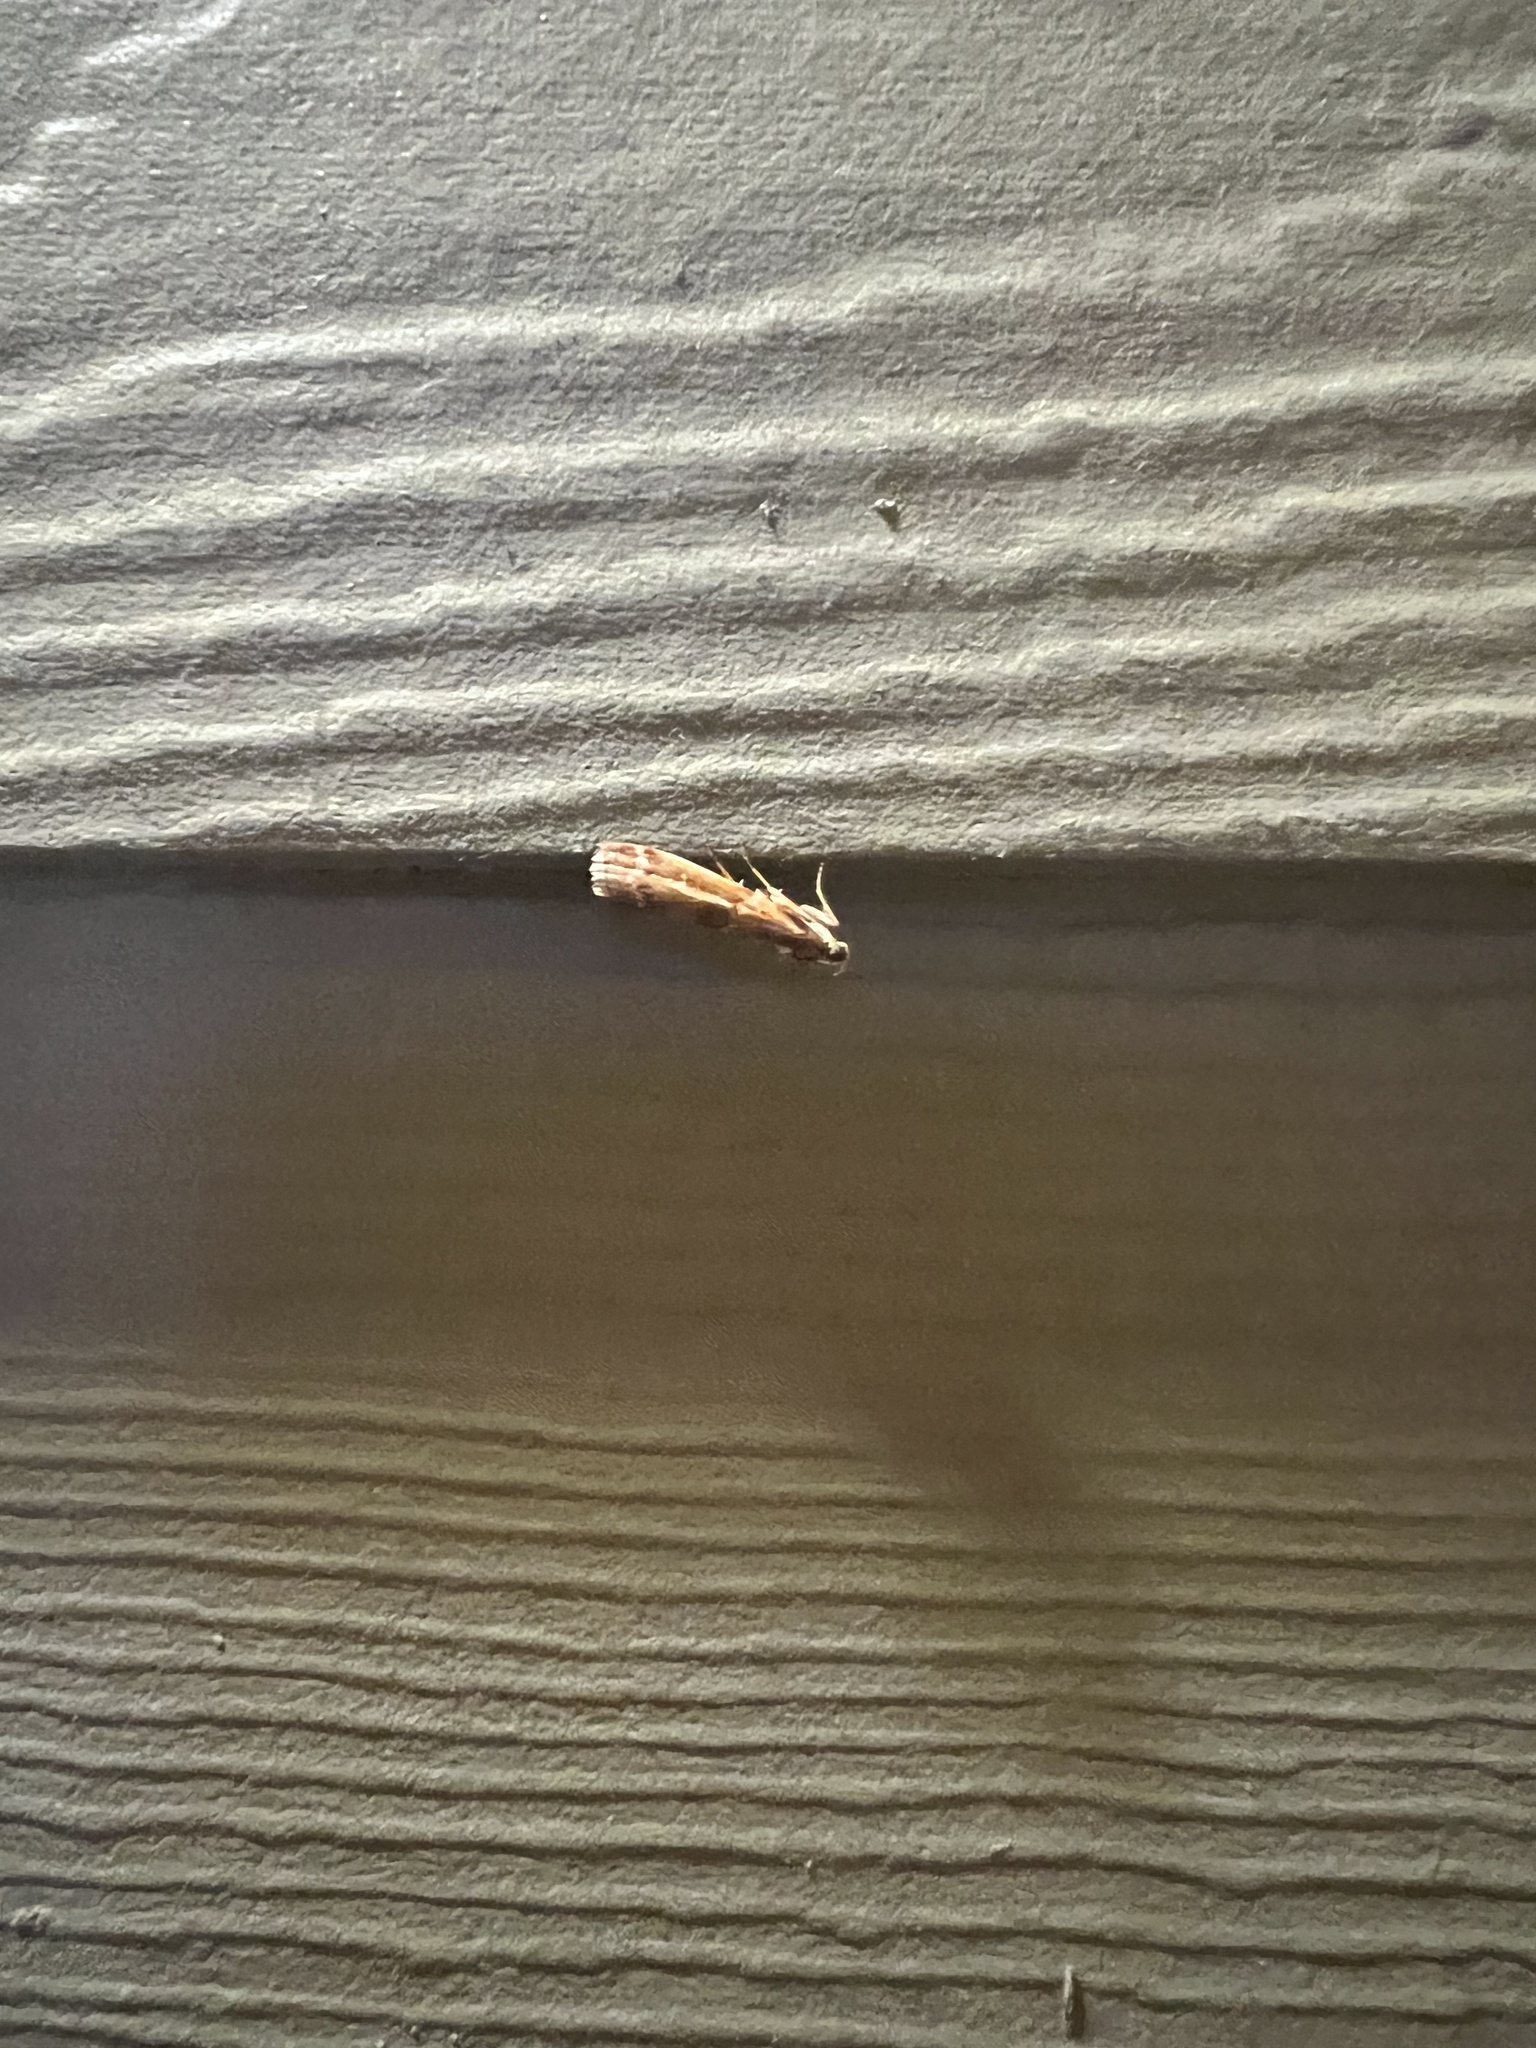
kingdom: Animalia
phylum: Arthropoda
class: Insecta
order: Lepidoptera
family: Pyralidae
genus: Dioryctria
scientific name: Dioryctria auranticella
